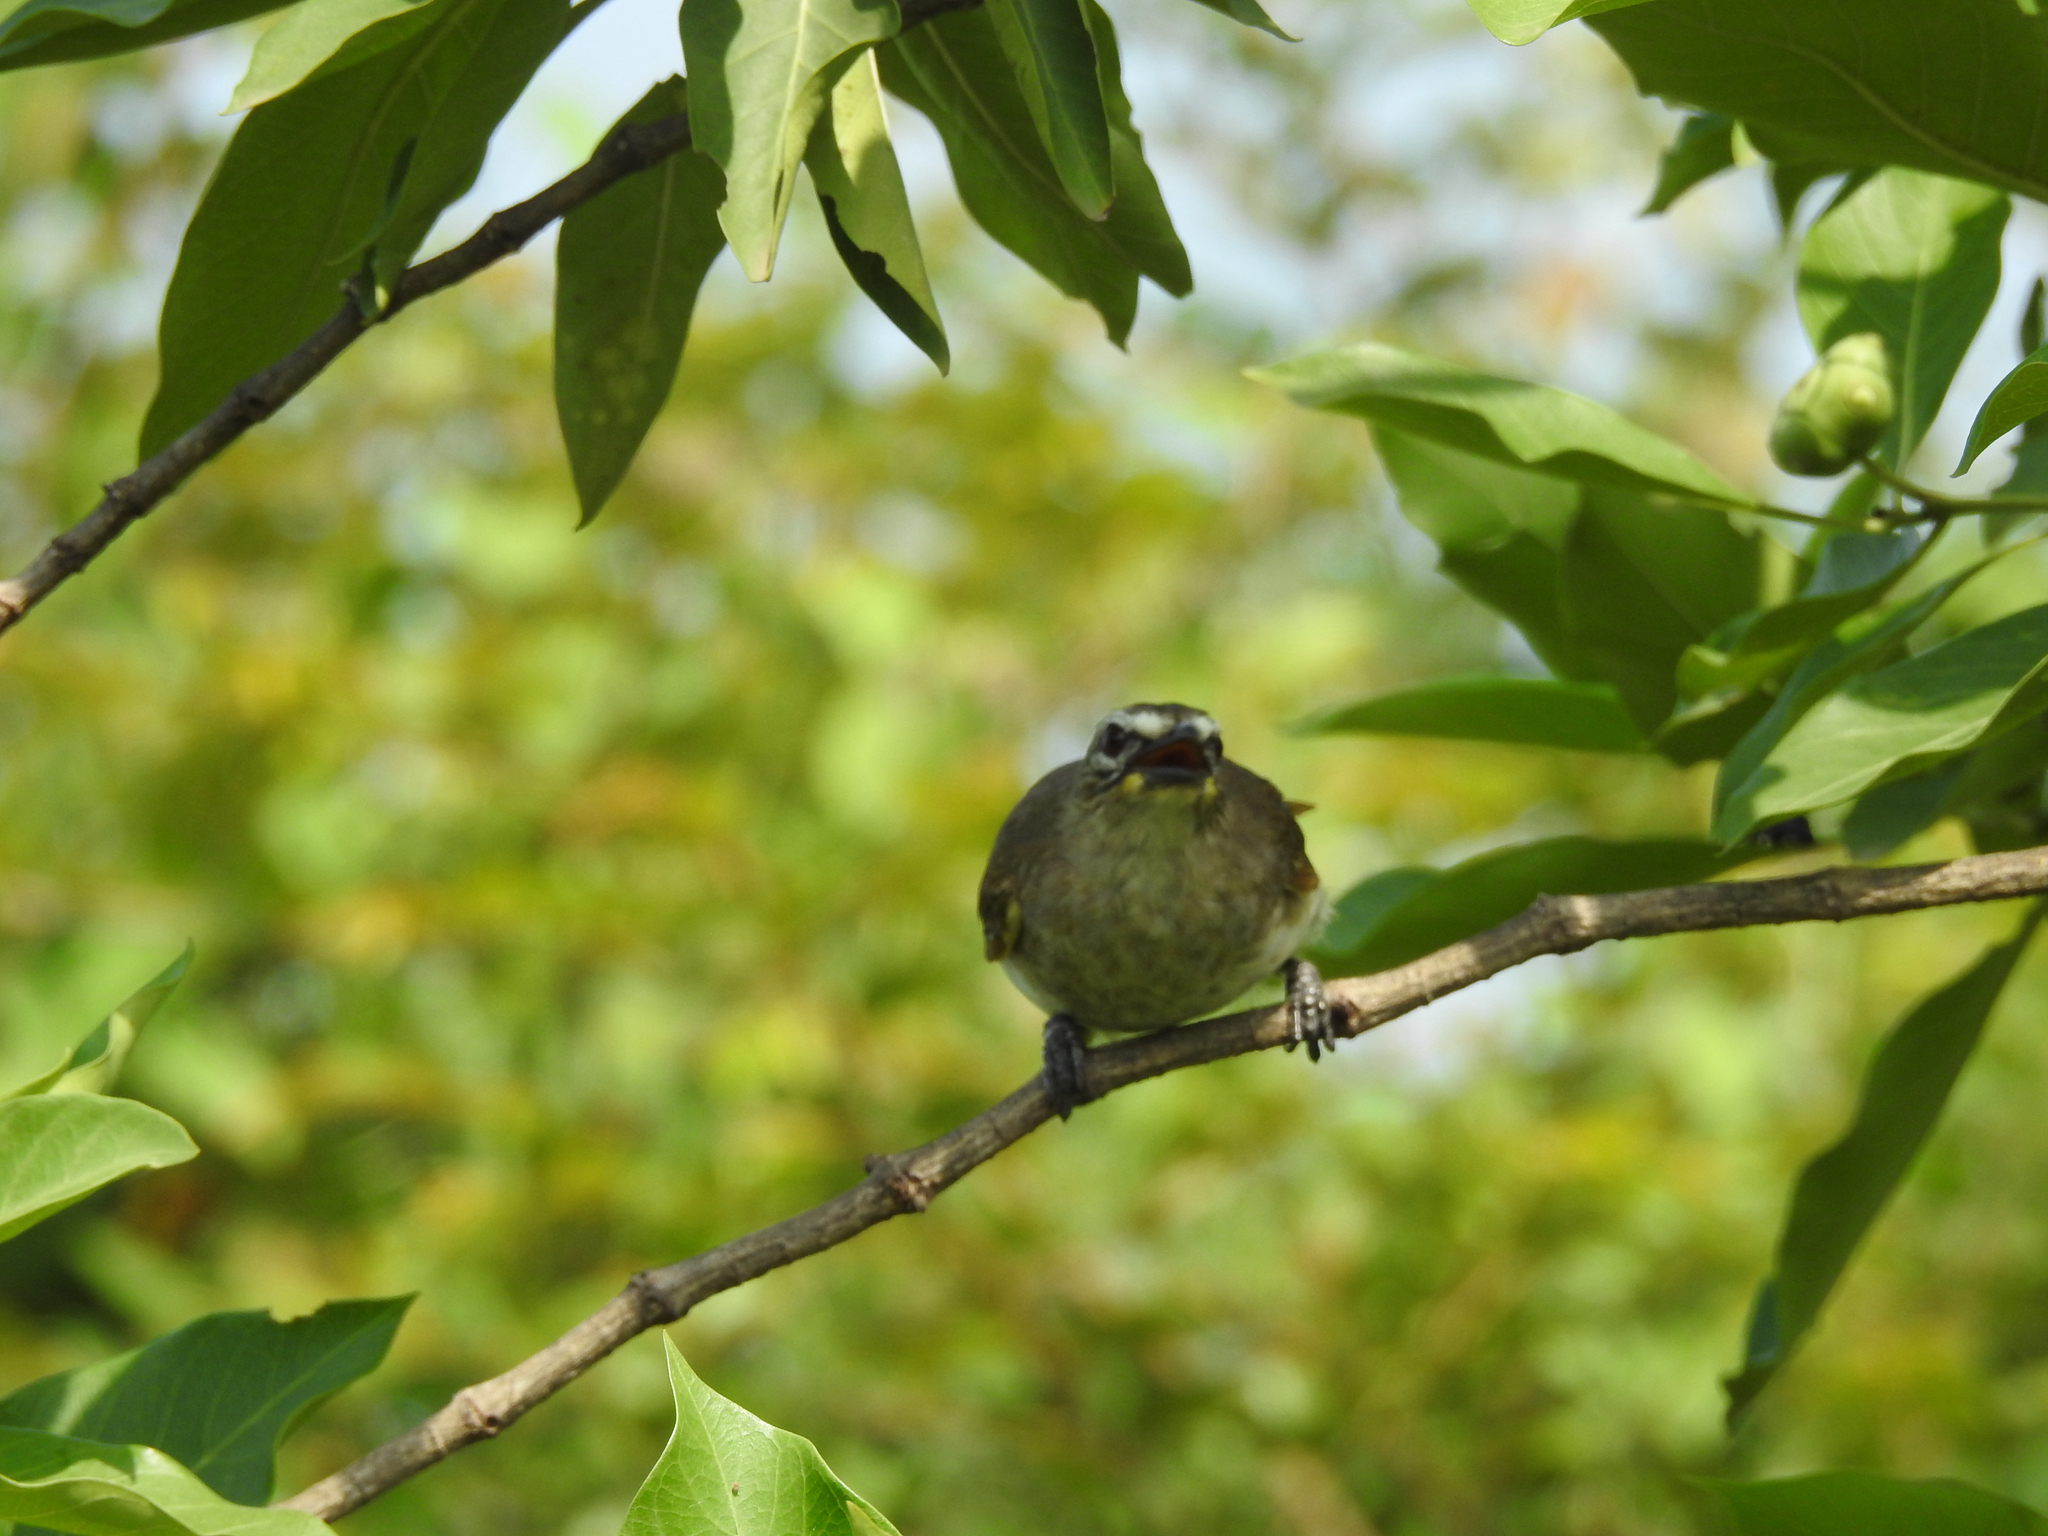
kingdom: Animalia
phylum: Chordata
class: Aves
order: Passeriformes
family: Pycnonotidae
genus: Pycnonotus
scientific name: Pycnonotus luteolus
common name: White-browed bulbul
